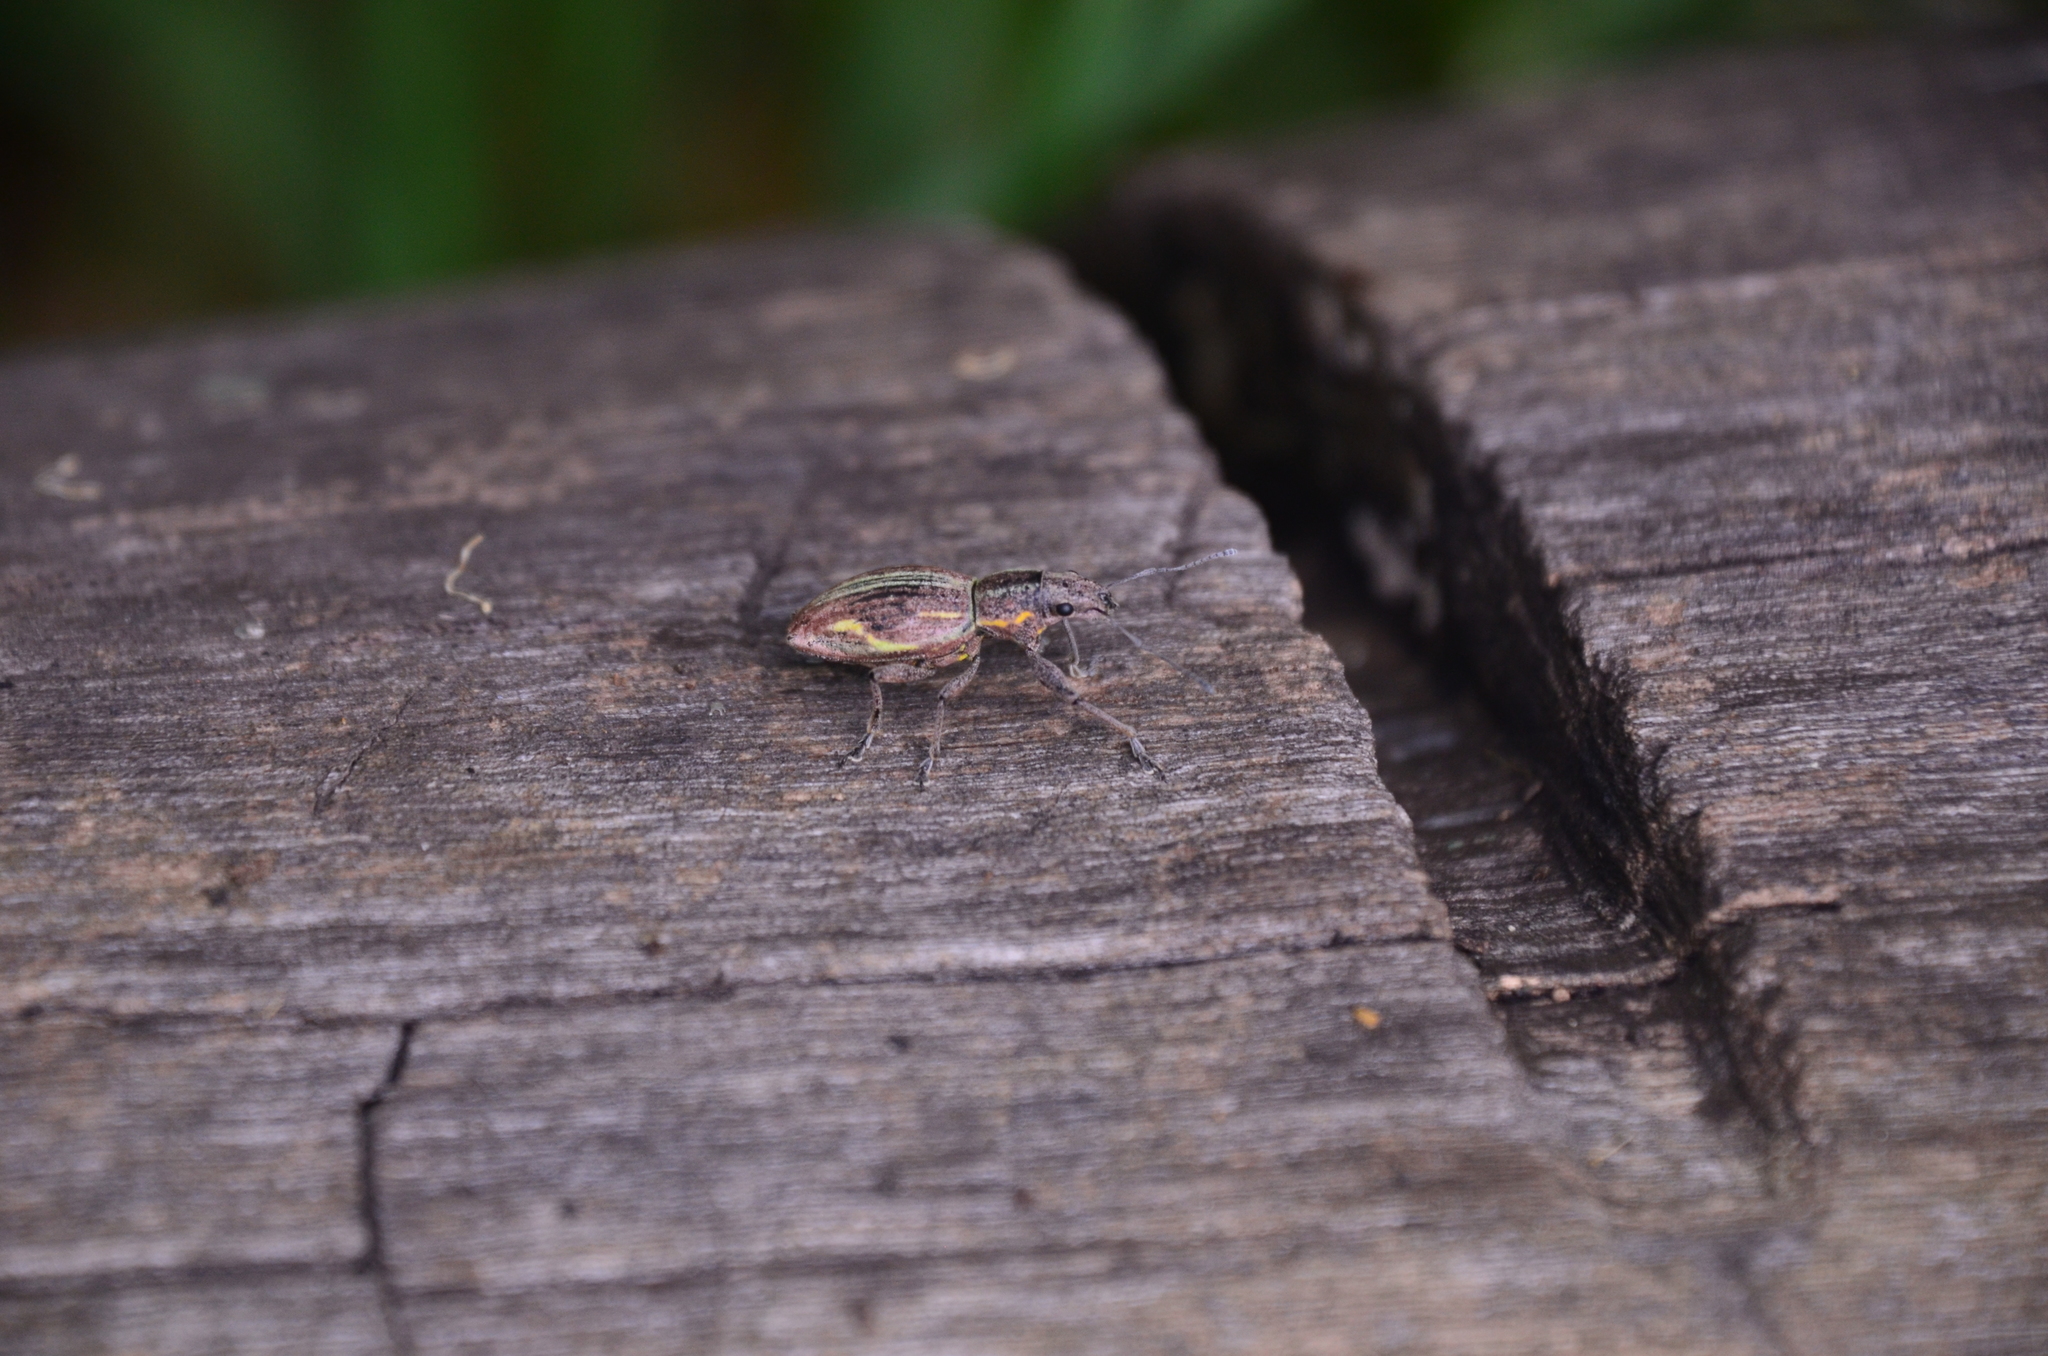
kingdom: Animalia
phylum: Arthropoda
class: Insecta
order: Coleoptera
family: Curculionidae
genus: Naupactus
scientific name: Naupactus xanthographus
